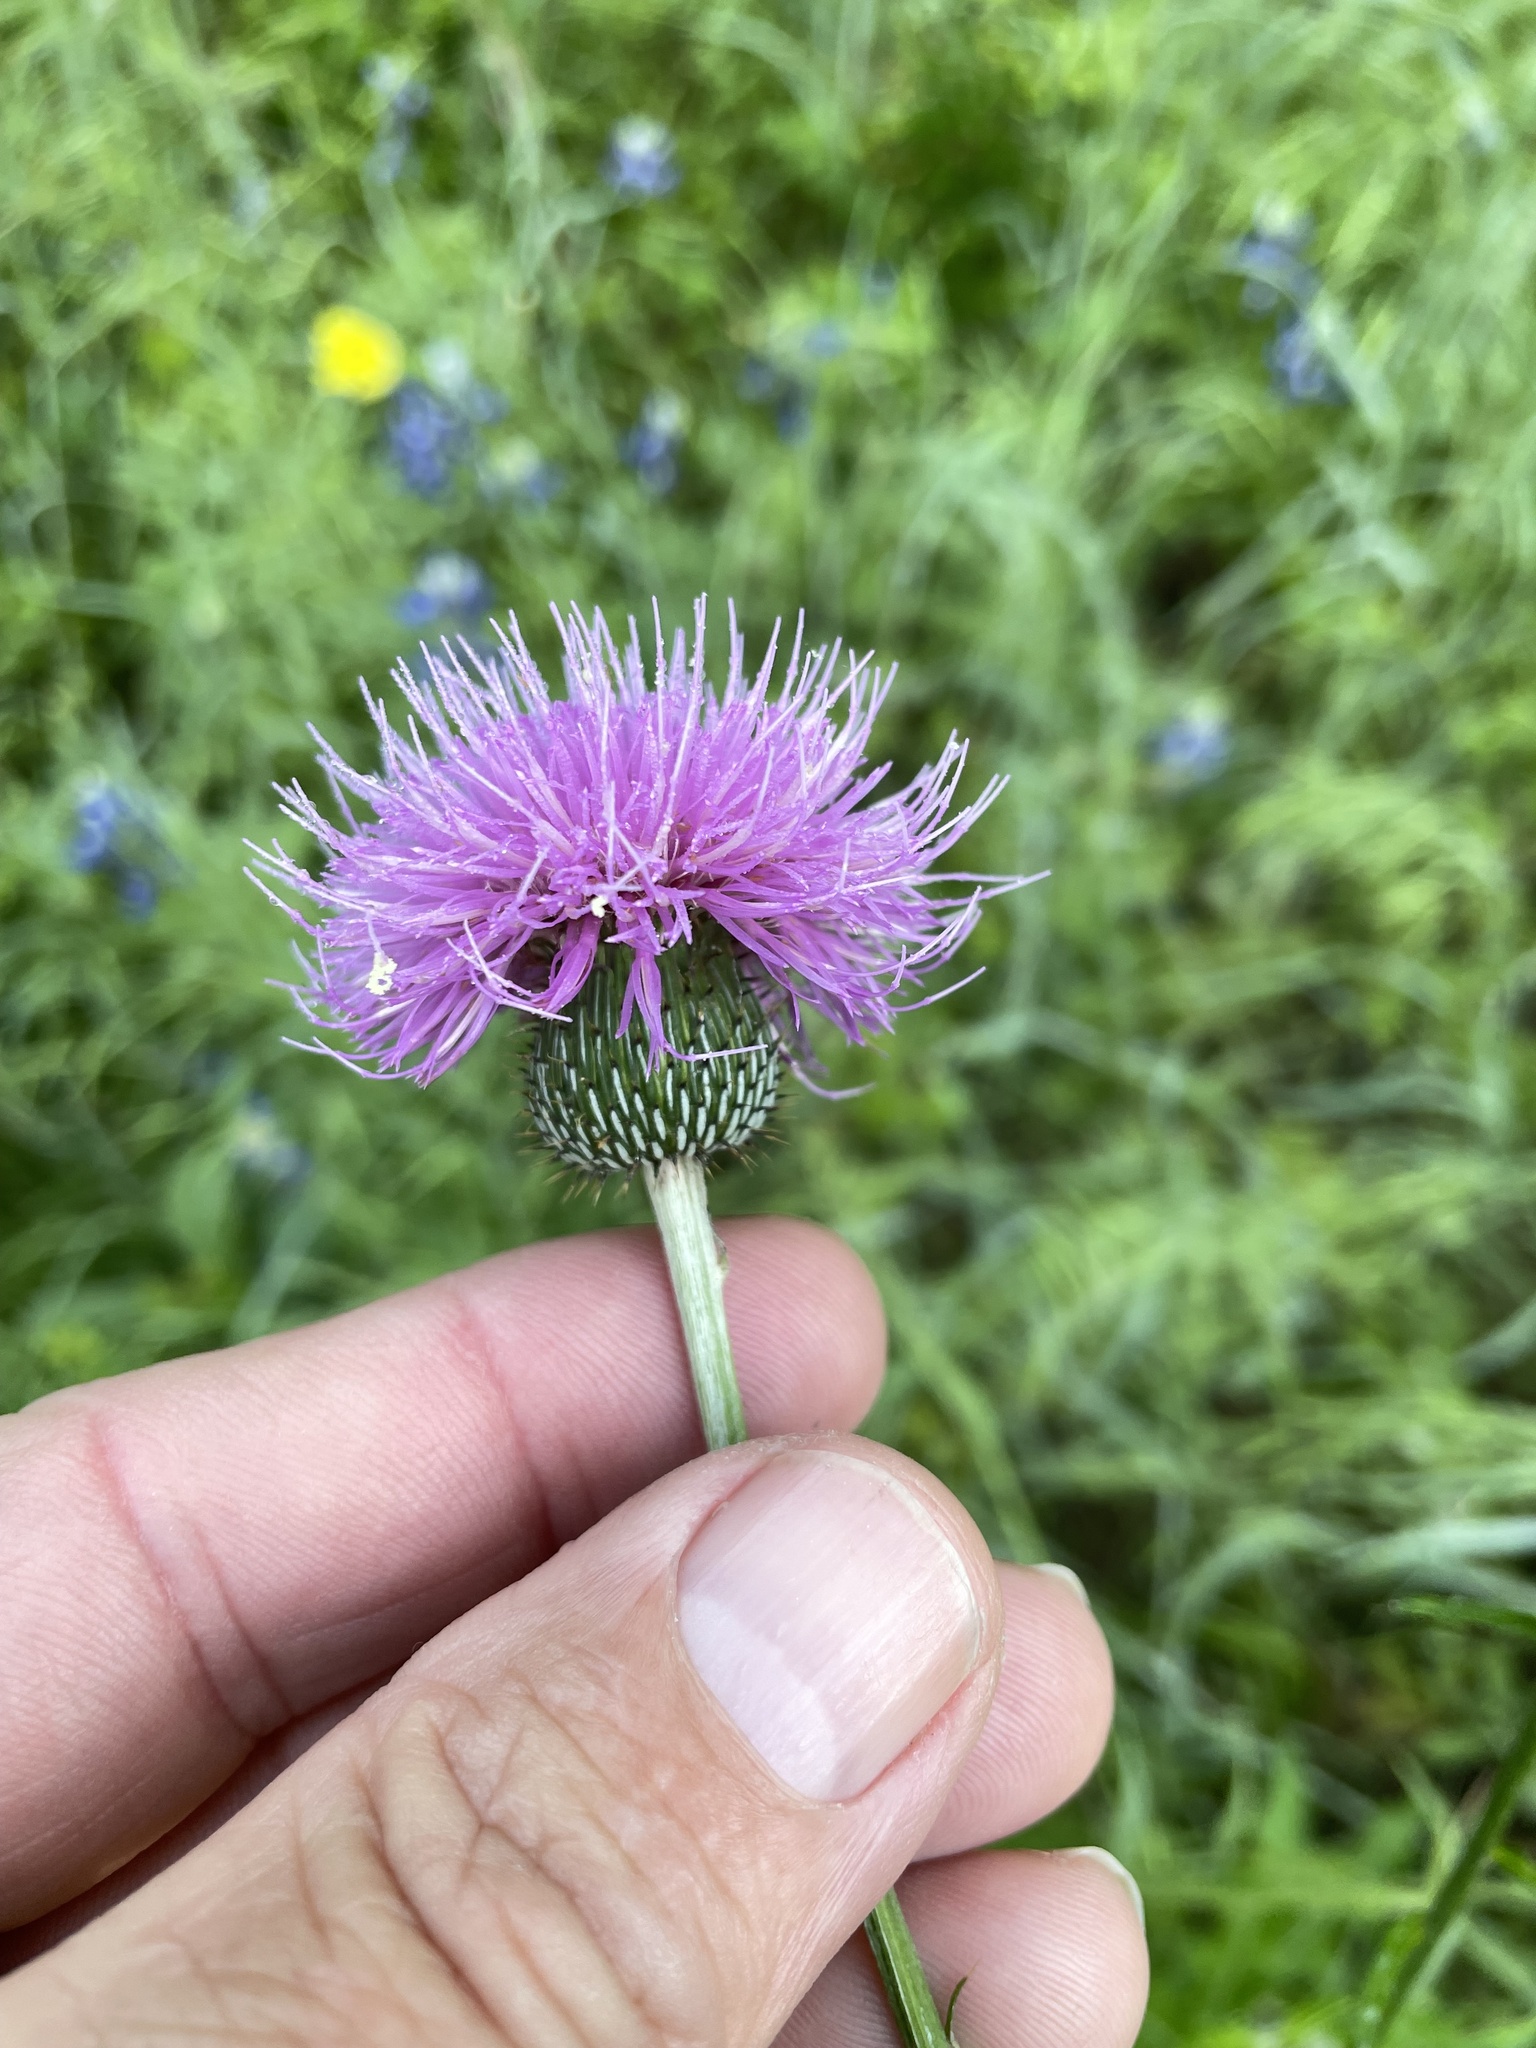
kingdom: Plantae
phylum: Tracheophyta
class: Magnoliopsida
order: Asterales
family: Asteraceae
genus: Cirsium
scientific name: Cirsium texanum
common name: Texas purple thistle
